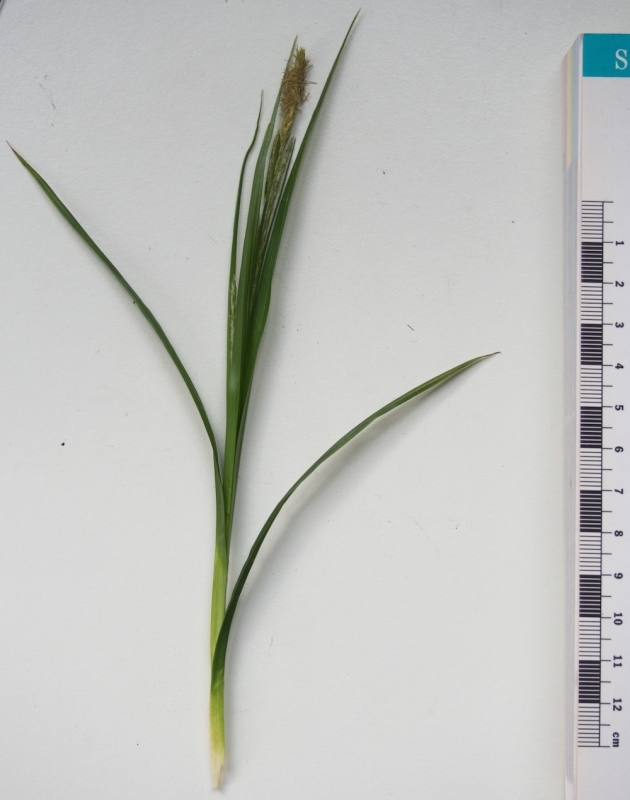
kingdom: Plantae
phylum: Tracheophyta
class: Liliopsida
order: Poales
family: Cyperaceae
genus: Carex
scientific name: Carex sylvatica
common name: Wood-sedge
